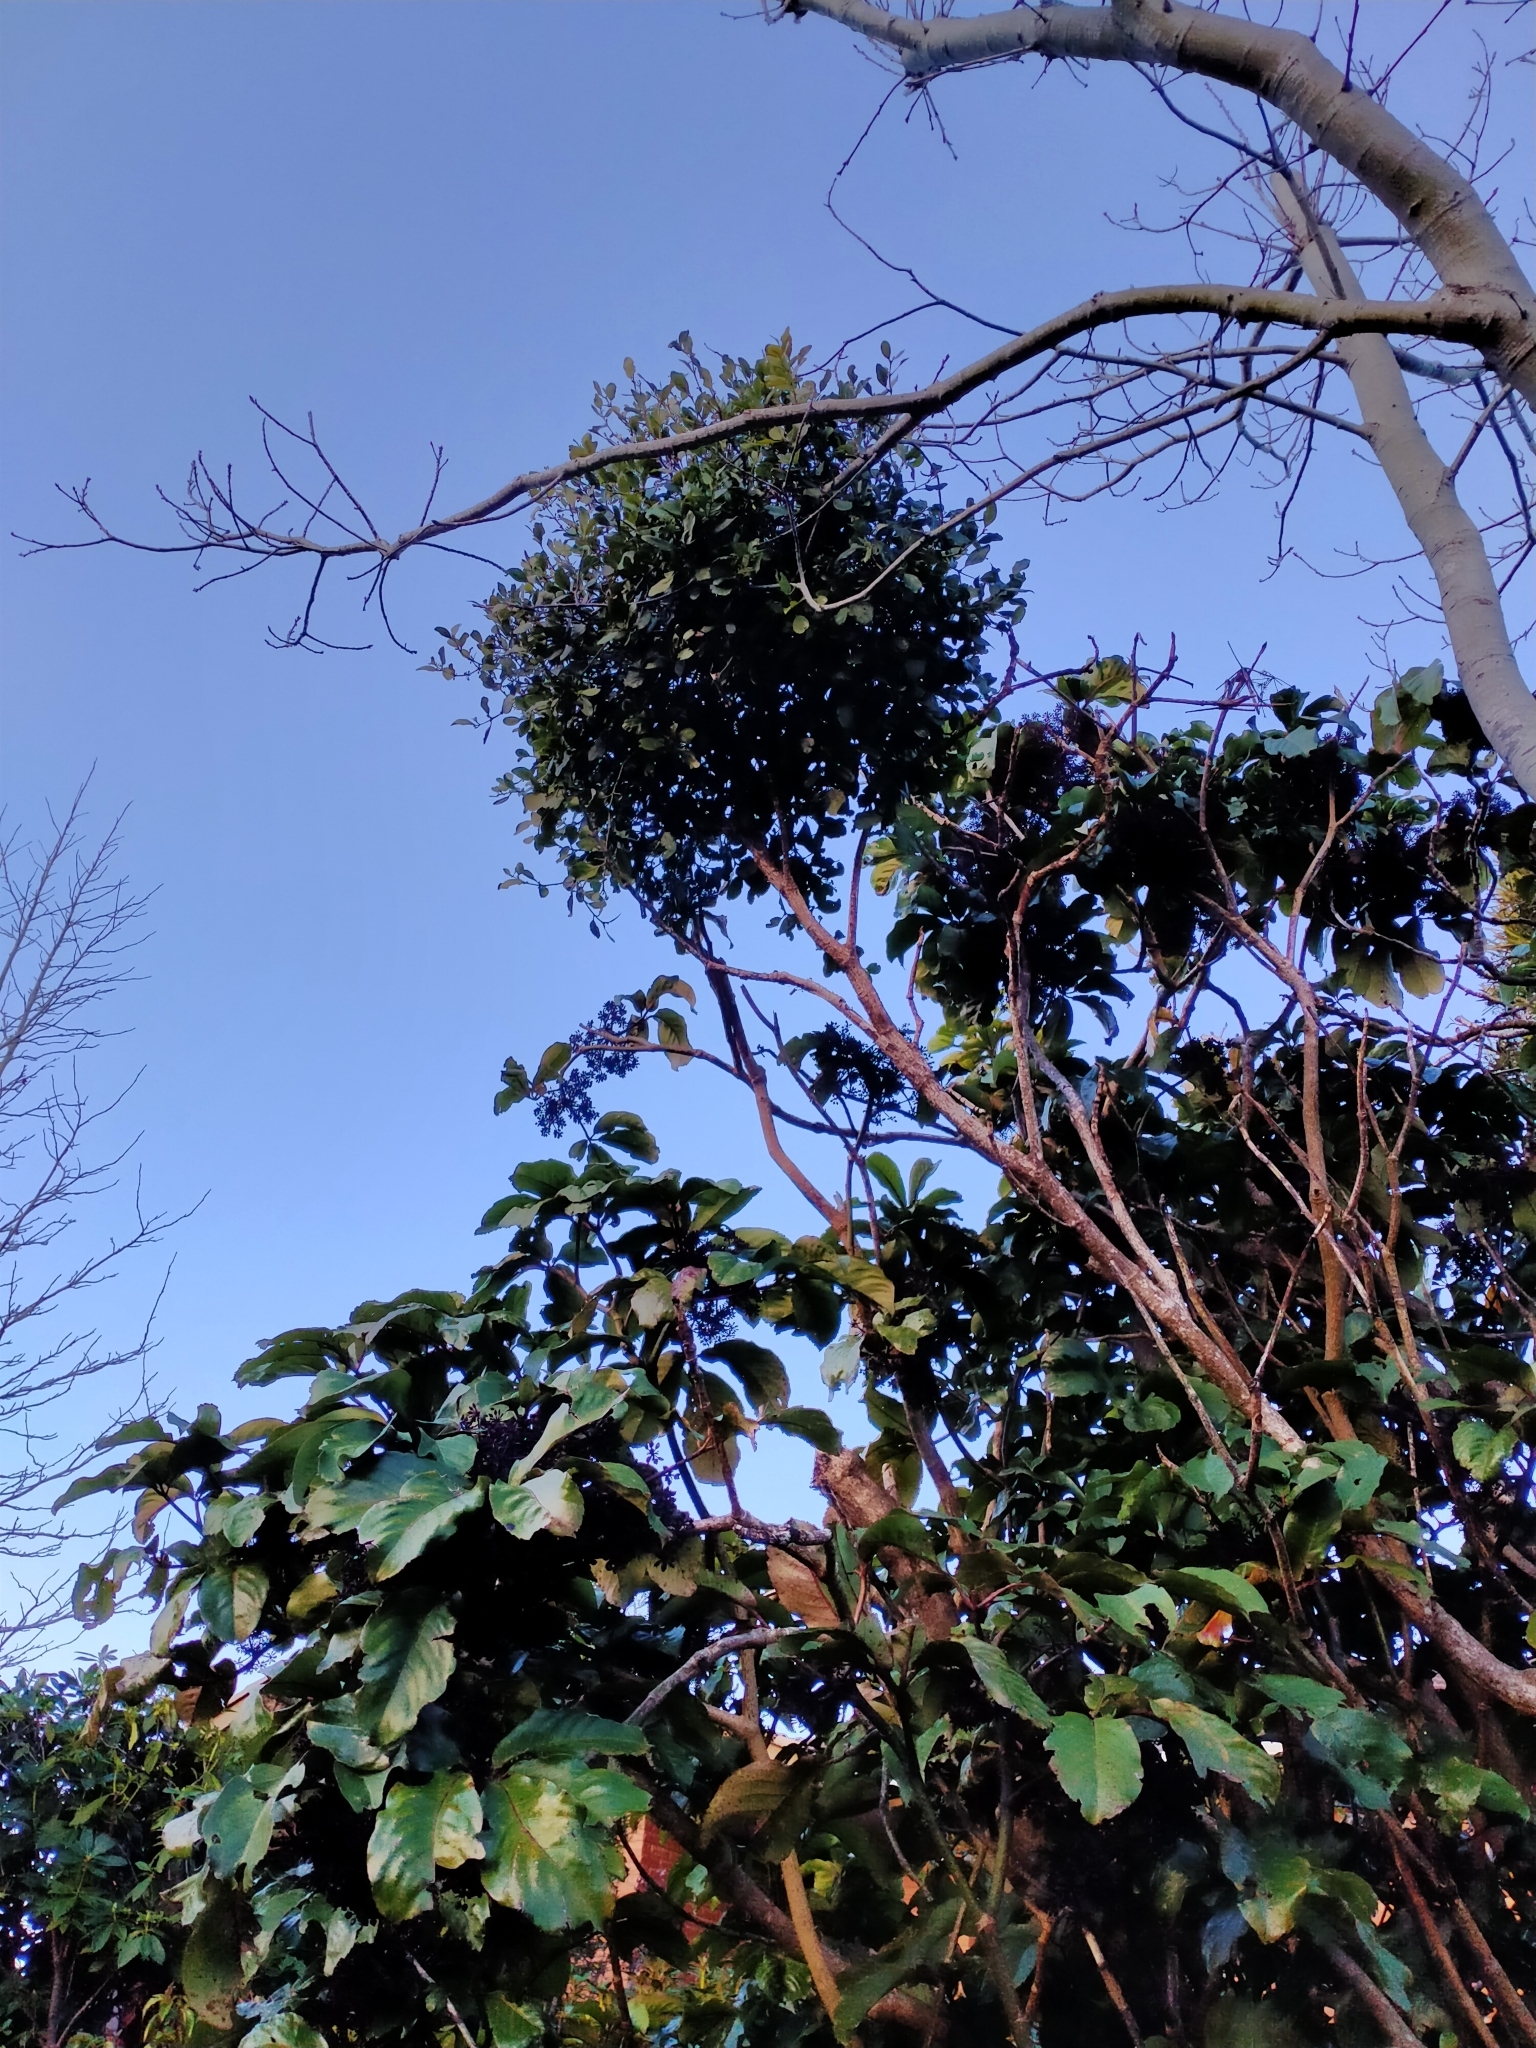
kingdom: Plantae
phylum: Tracheophyta
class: Magnoliopsida
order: Santalales
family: Loranthaceae
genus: Ileostylus
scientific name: Ileostylus micranthus
